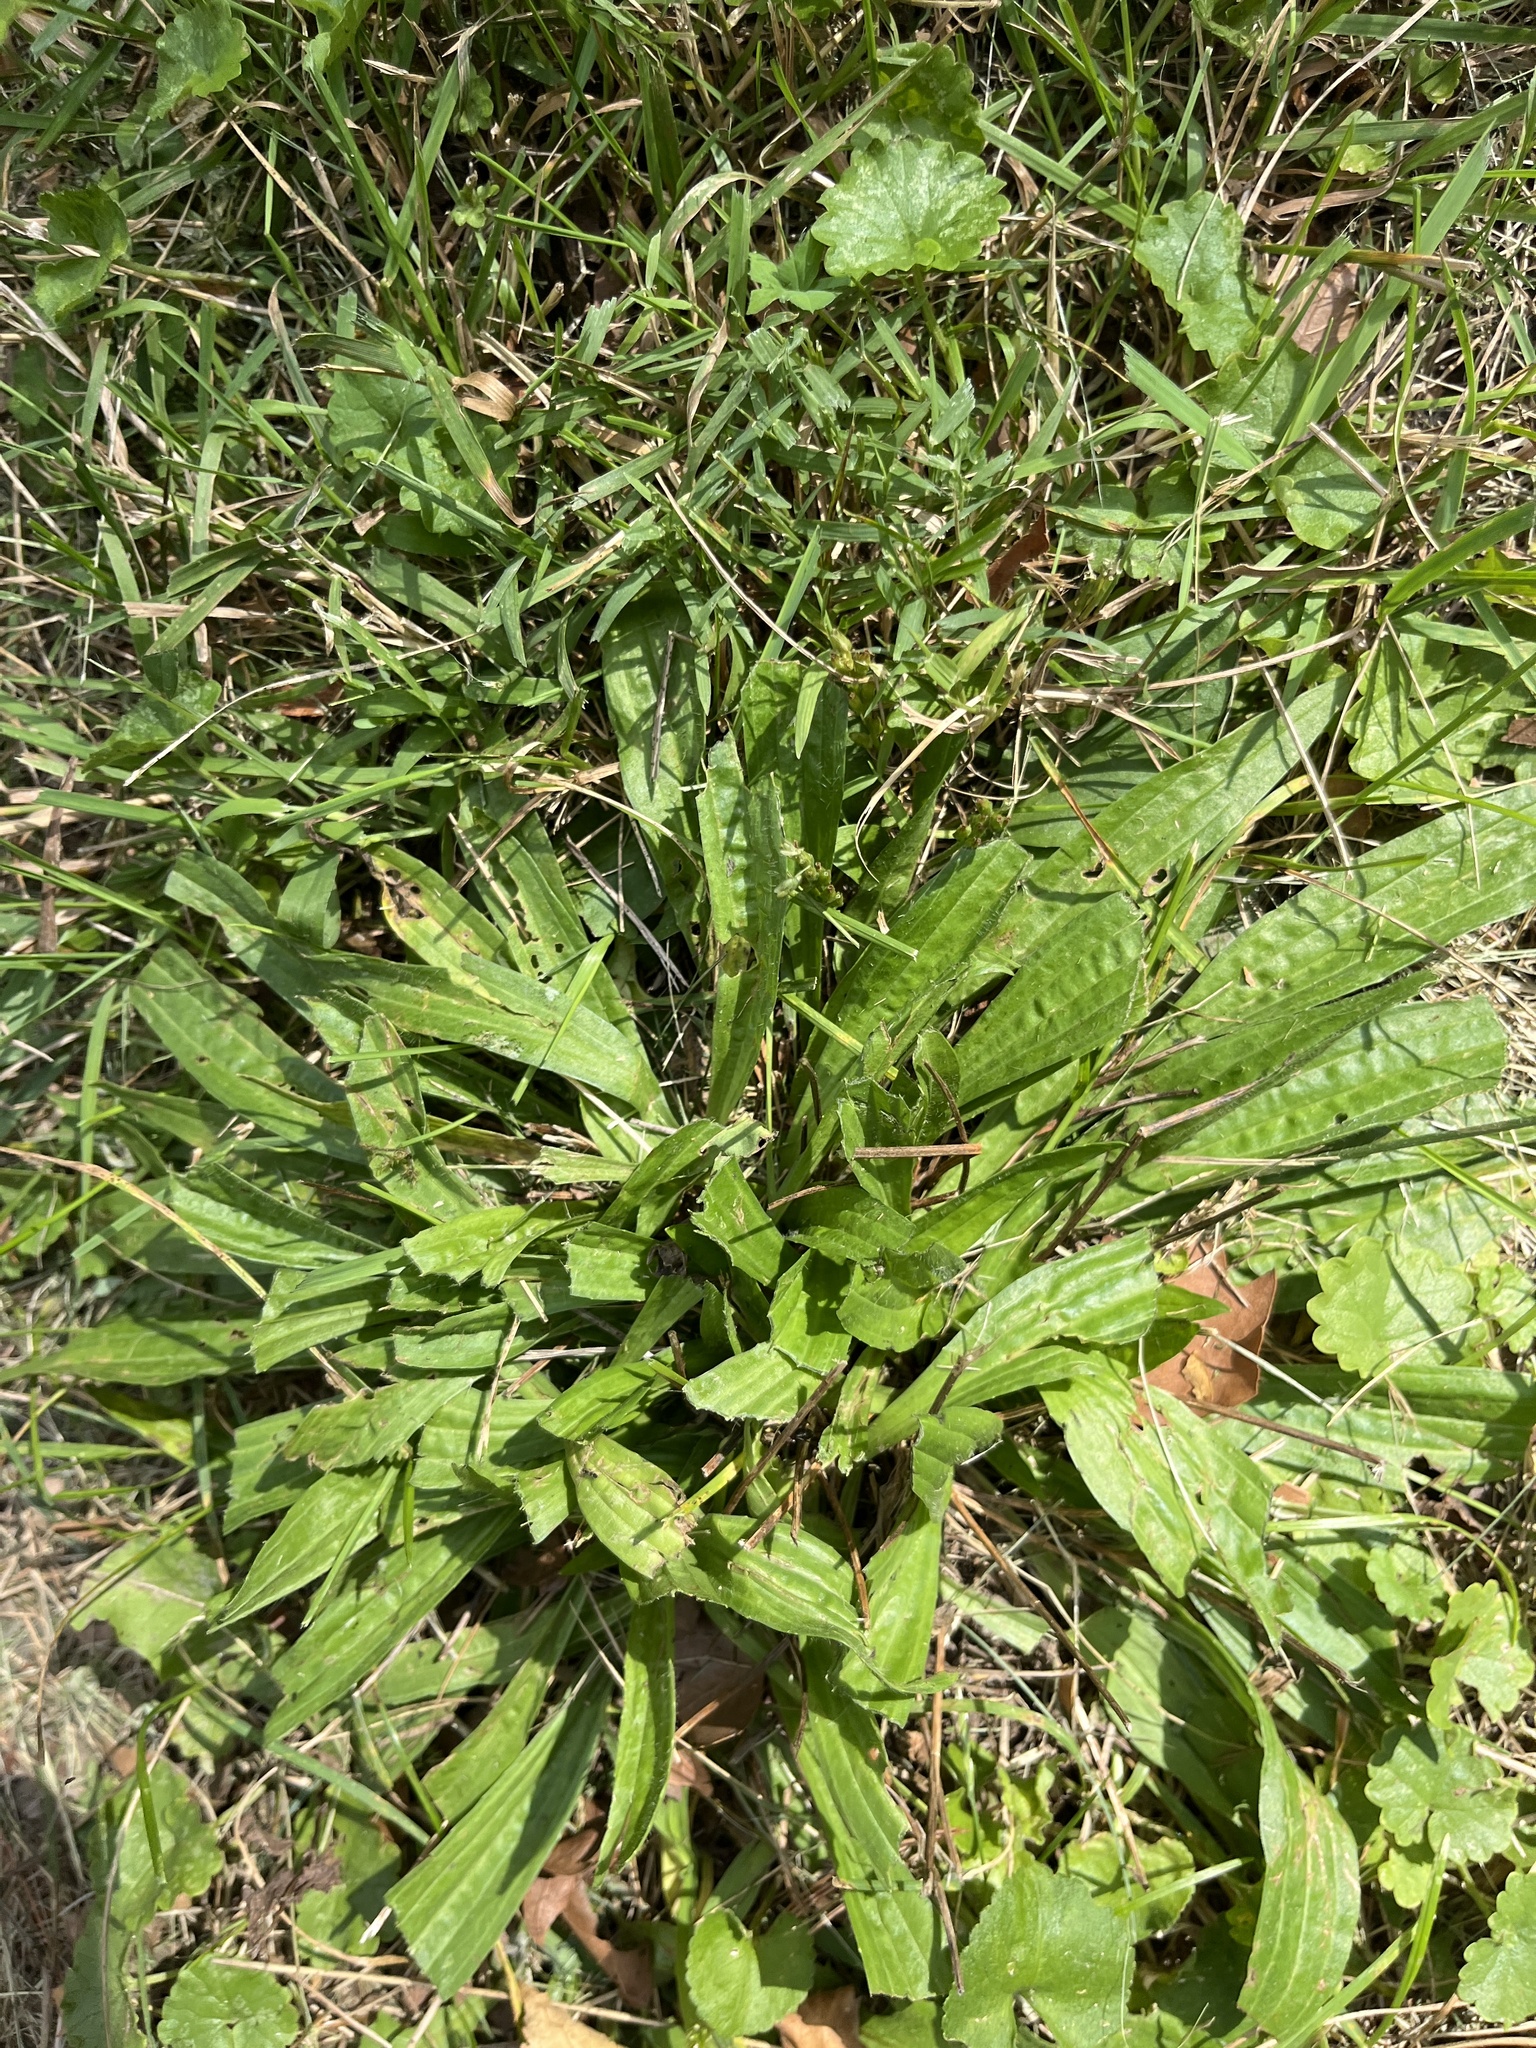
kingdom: Plantae
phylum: Tracheophyta
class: Magnoliopsida
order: Lamiales
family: Plantaginaceae
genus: Plantago
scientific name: Plantago lanceolata
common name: Ribwort plantain
